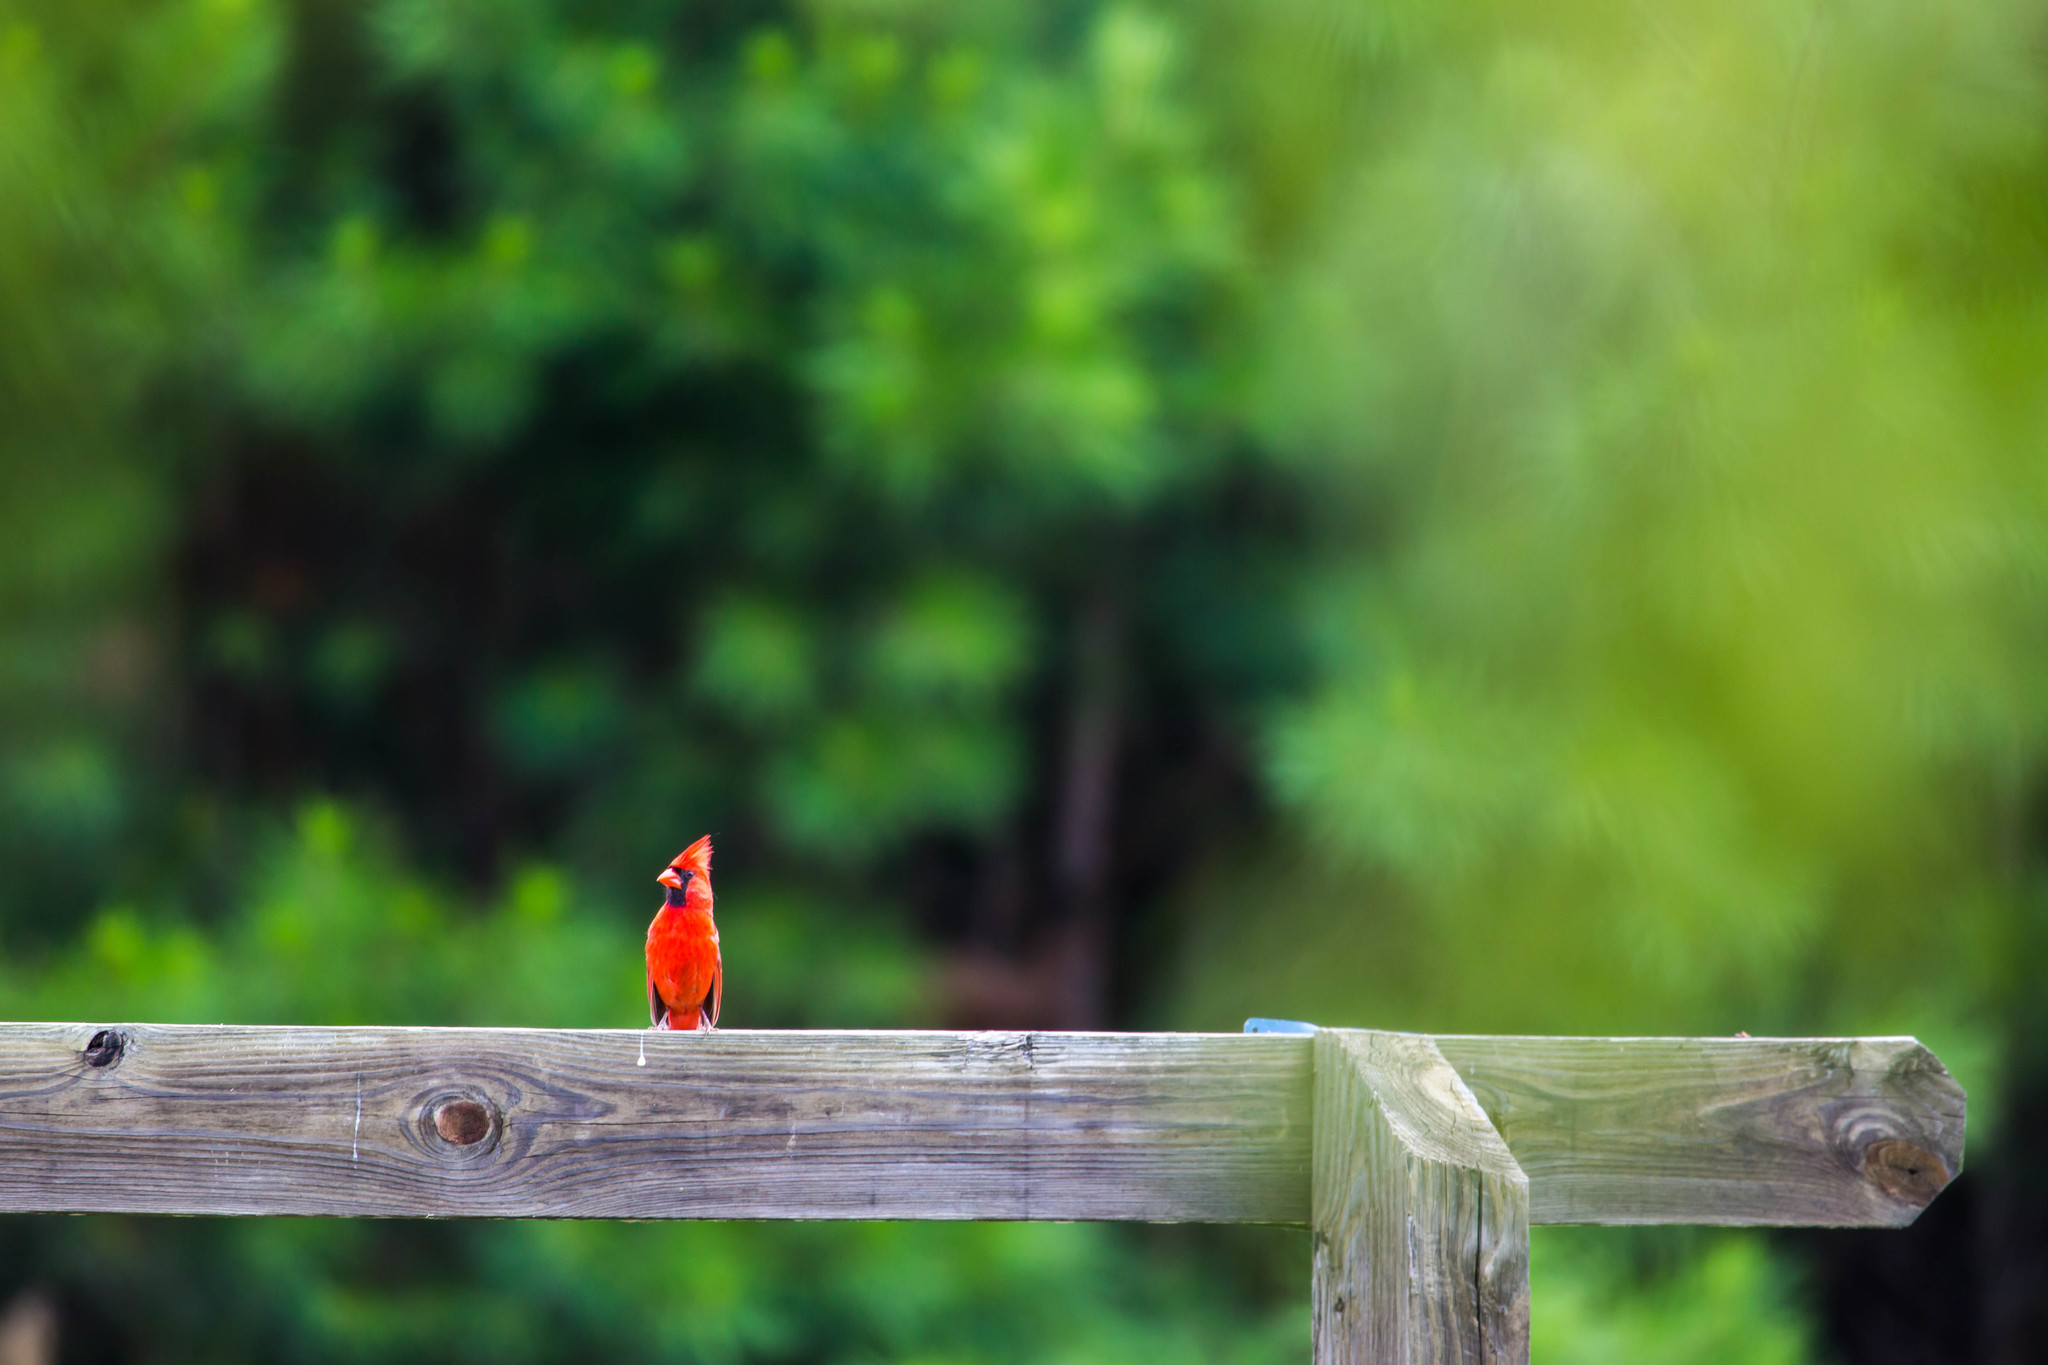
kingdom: Animalia
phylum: Chordata
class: Aves
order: Passeriformes
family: Cardinalidae
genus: Cardinalis
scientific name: Cardinalis cardinalis
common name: Northern cardinal
